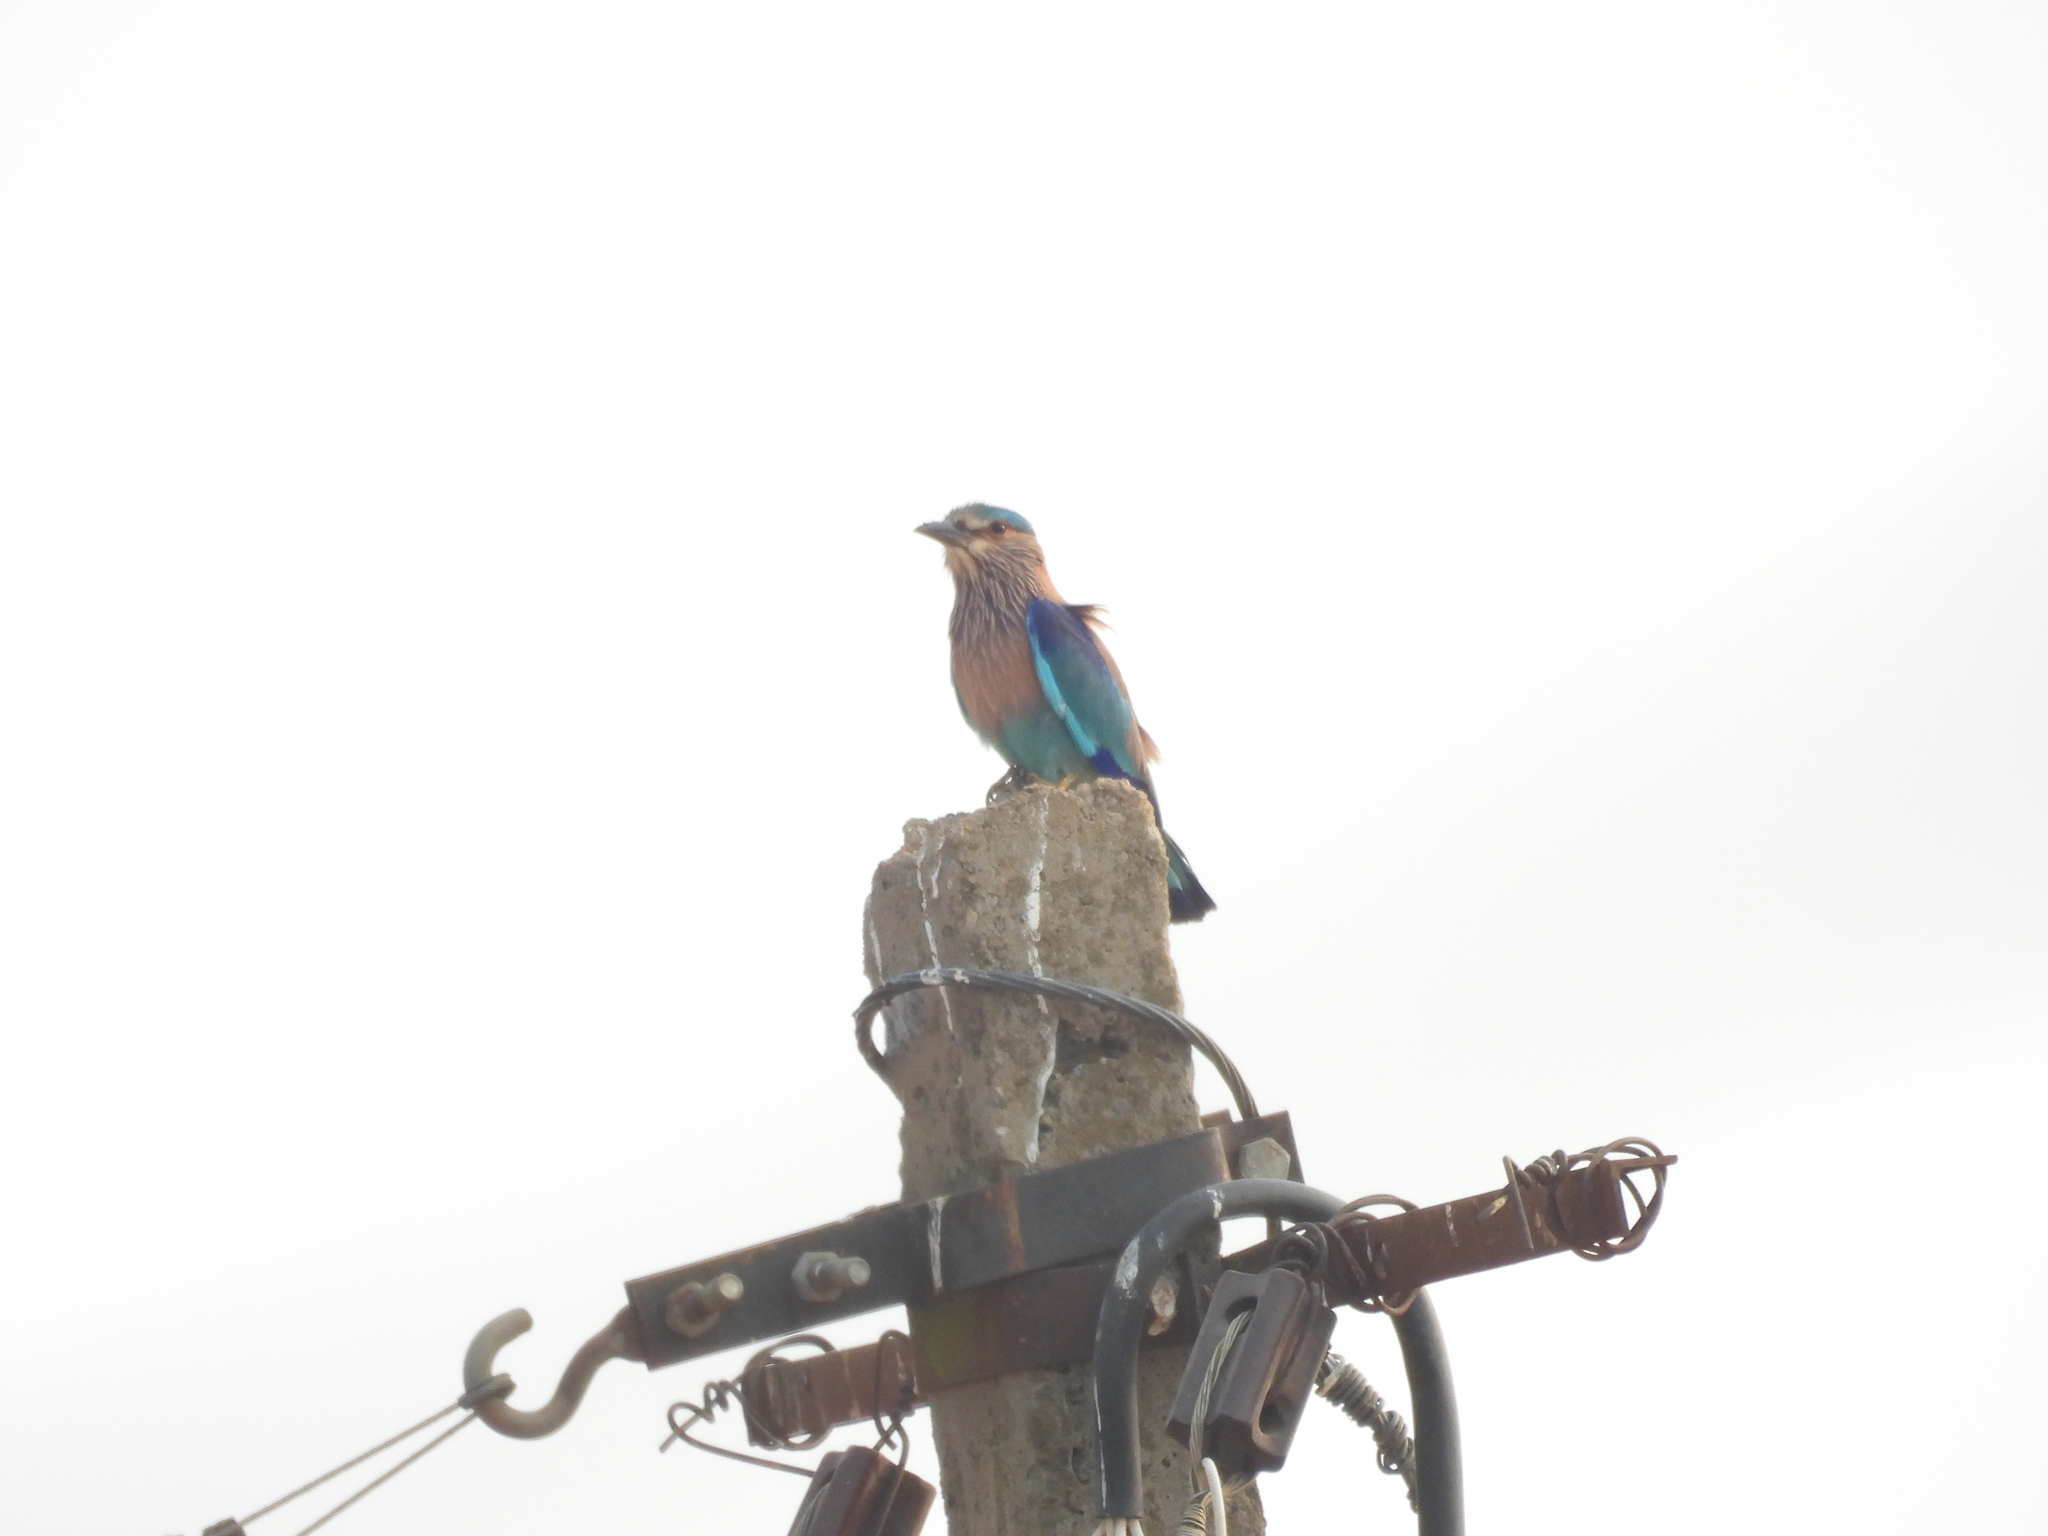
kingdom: Animalia
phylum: Chordata
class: Aves
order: Coraciiformes
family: Coraciidae
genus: Coracias
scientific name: Coracias benghalensis
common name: Indian roller
